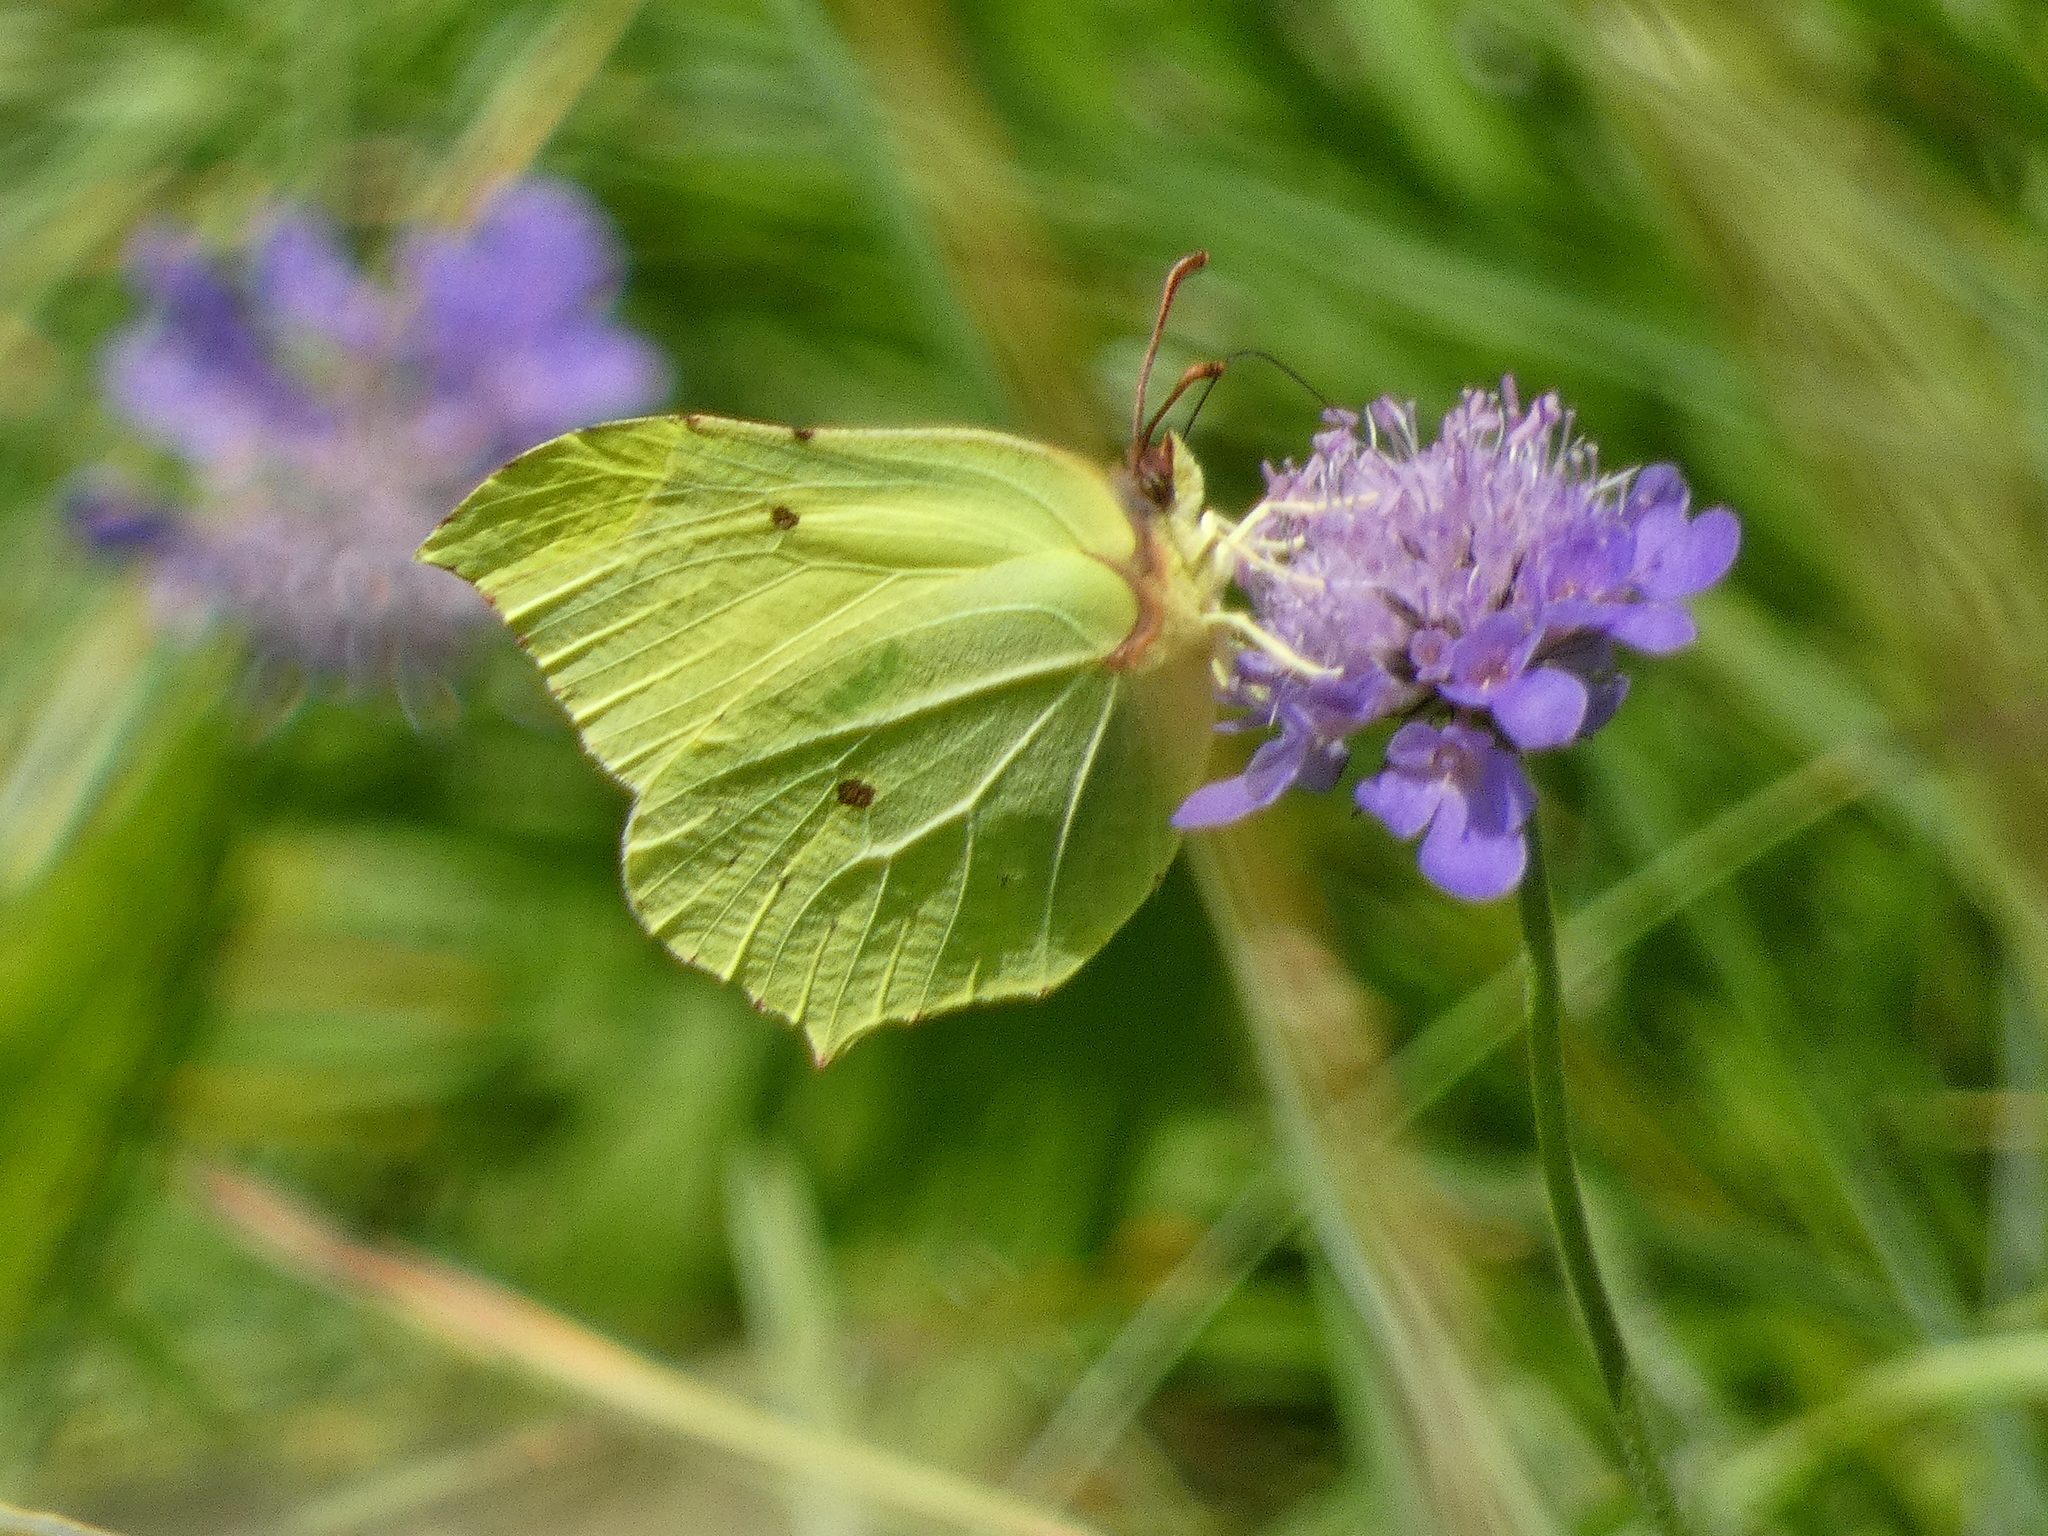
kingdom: Animalia
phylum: Arthropoda
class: Insecta
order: Lepidoptera
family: Pieridae
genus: Gonepteryx
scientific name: Gonepteryx rhamni
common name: Brimstone
